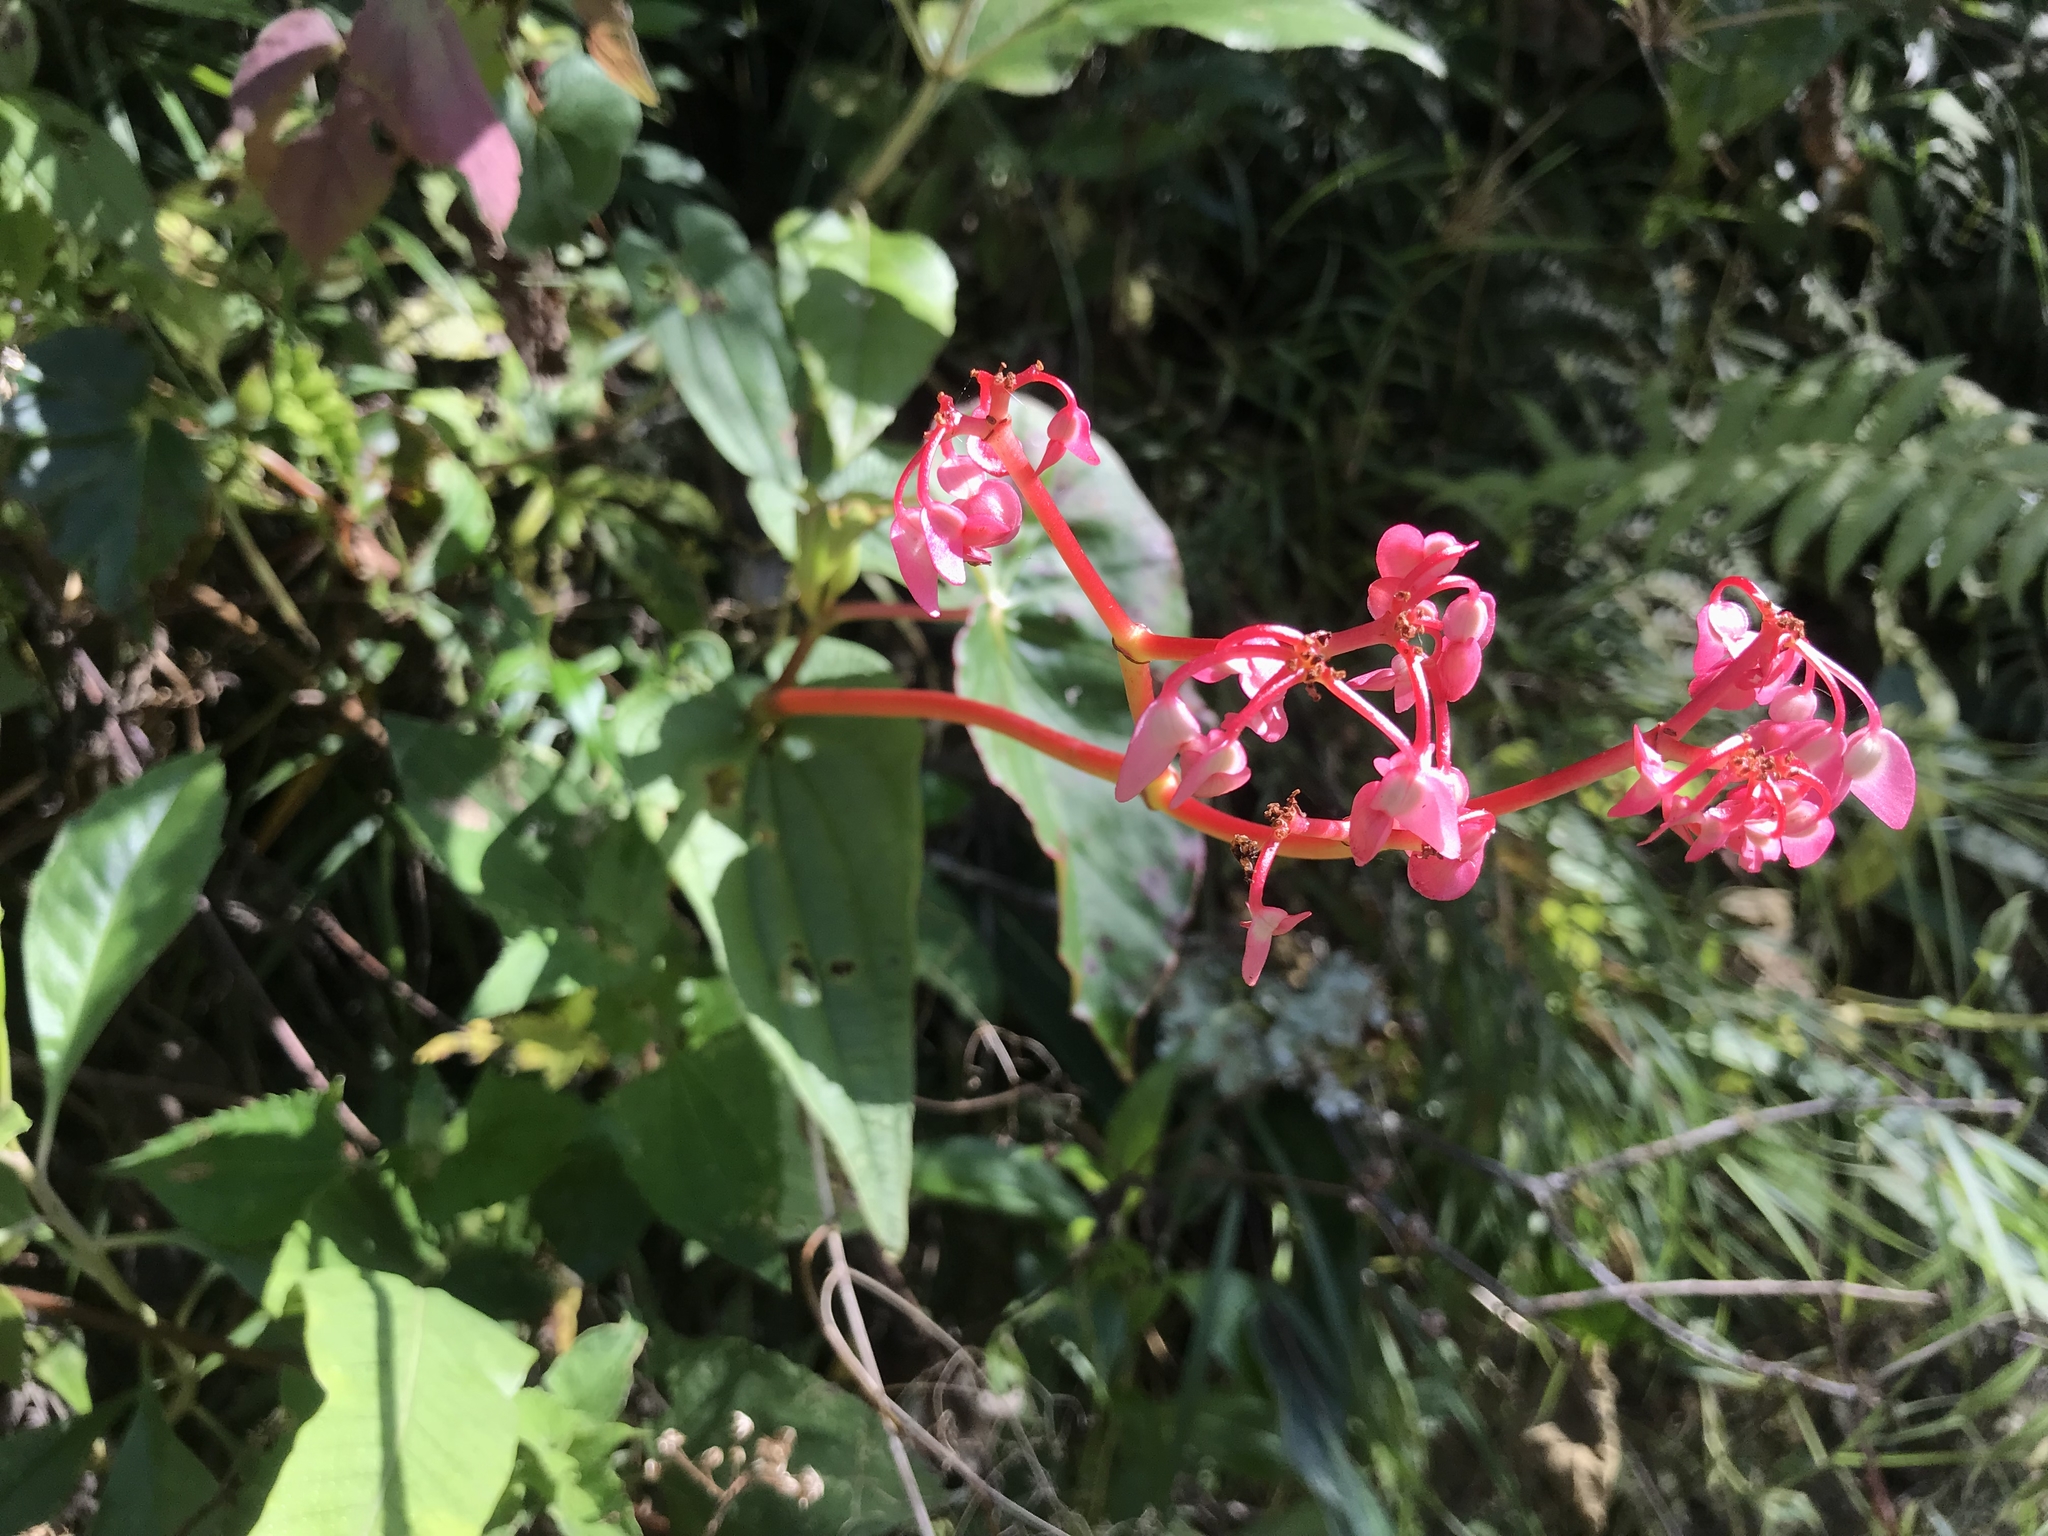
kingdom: Plantae
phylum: Tracheophyta
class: Magnoliopsida
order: Cucurbitales
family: Begoniaceae
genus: Begonia
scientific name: Begonia bracteosa
